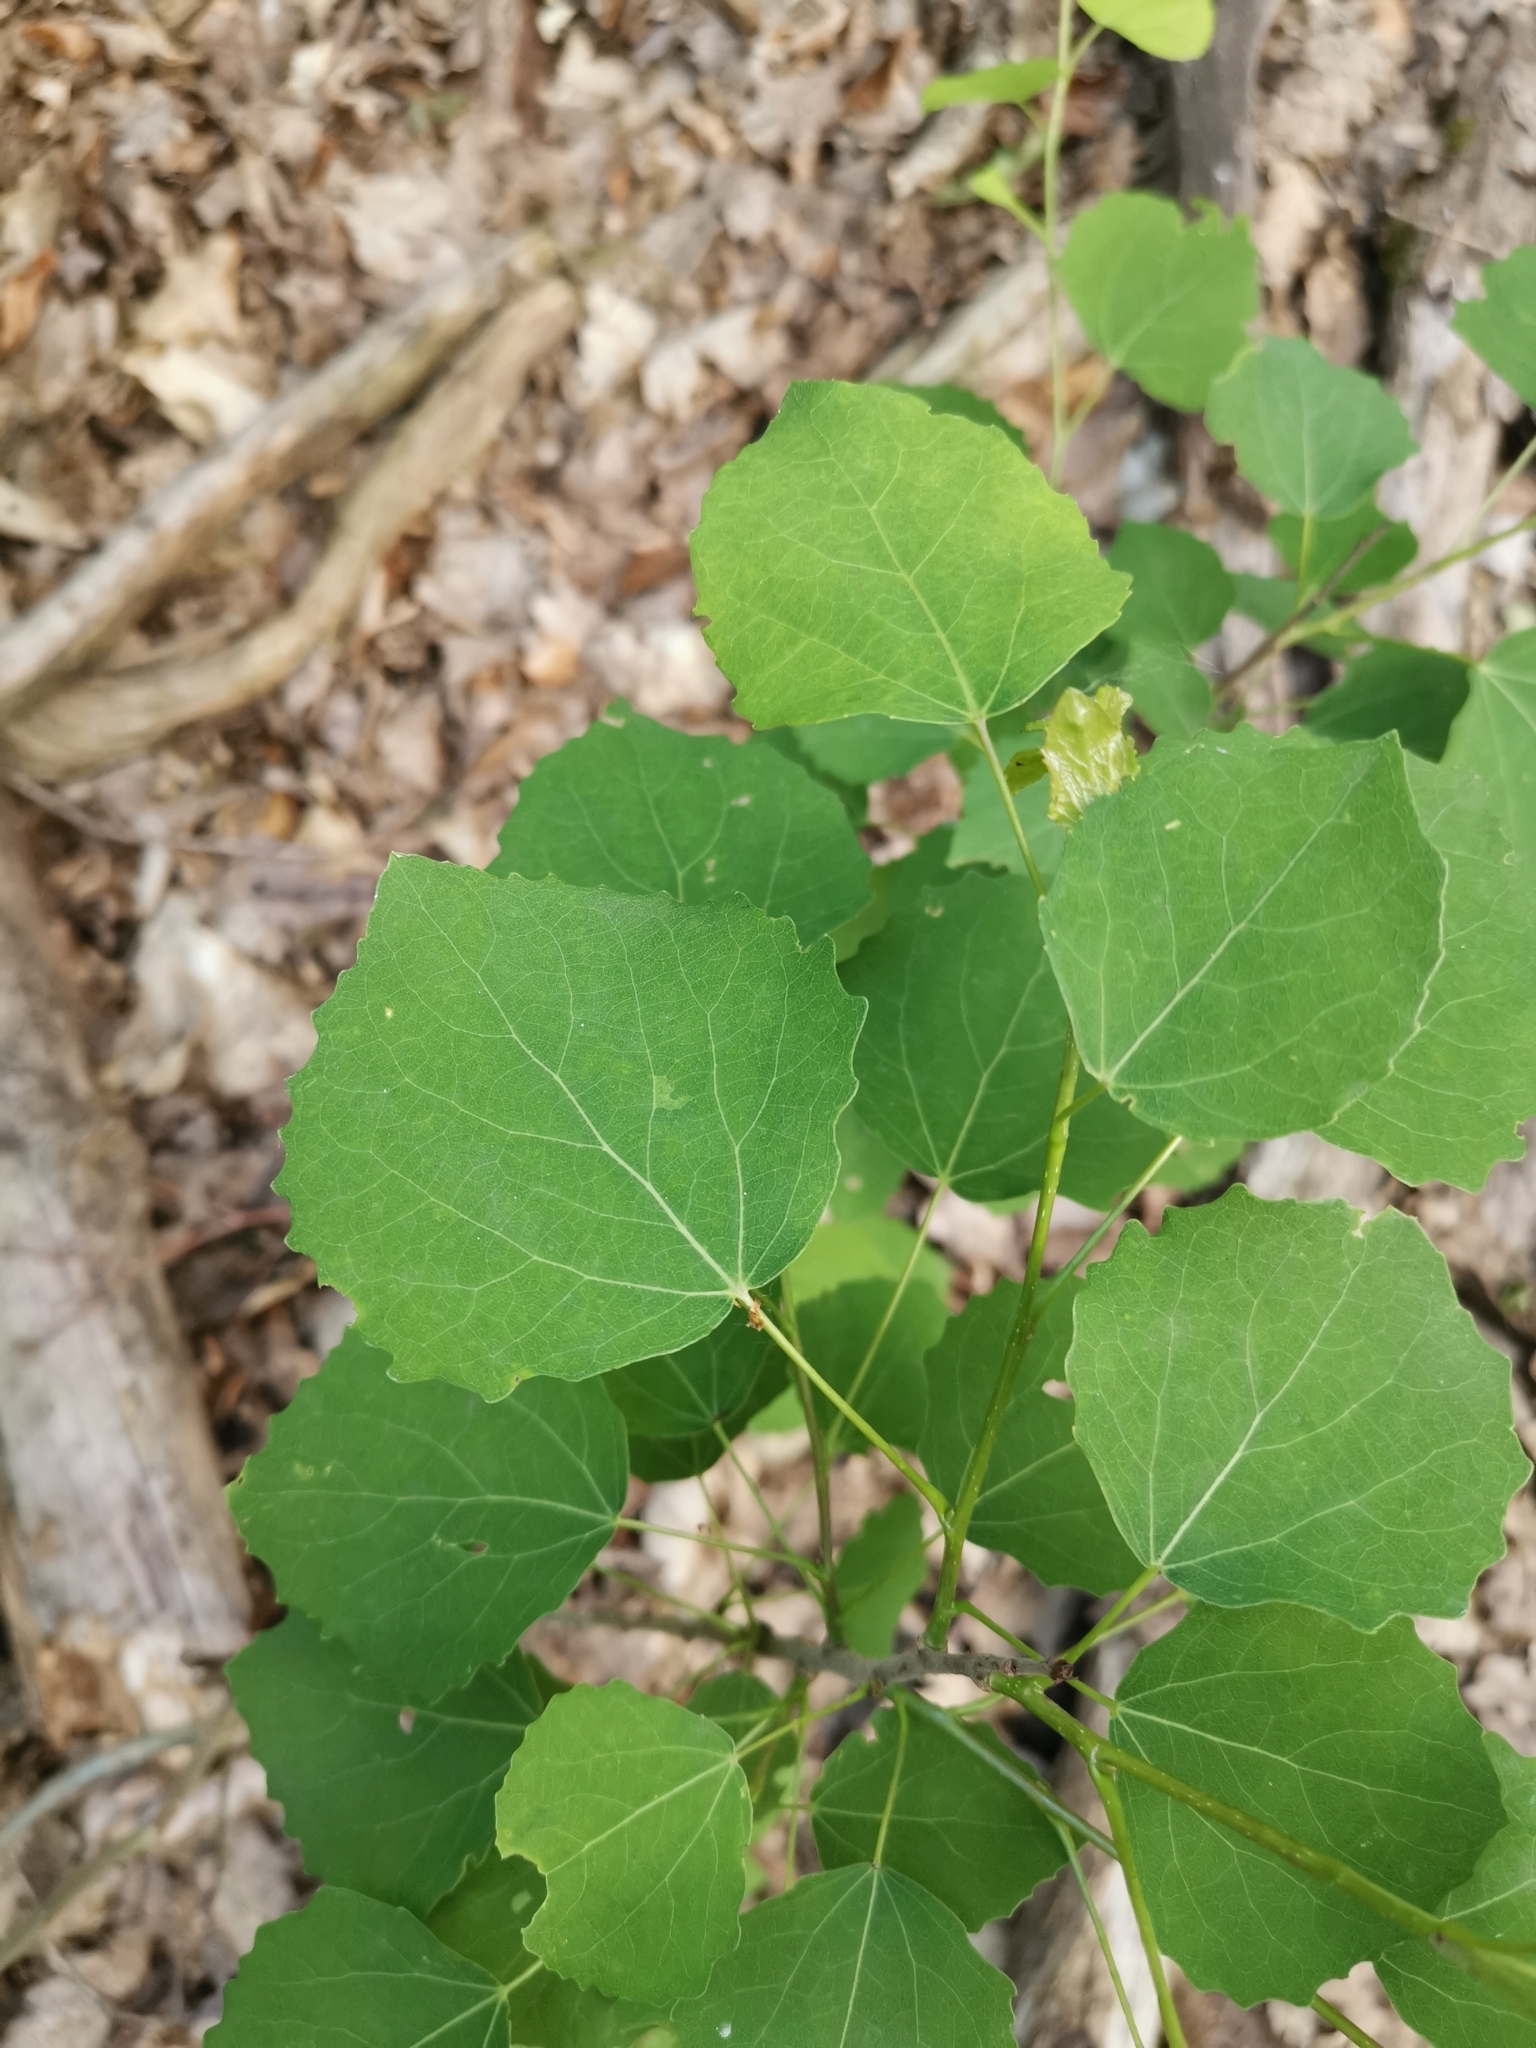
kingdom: Plantae
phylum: Tracheophyta
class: Magnoliopsida
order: Malpighiales
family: Salicaceae
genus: Populus
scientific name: Populus tremula
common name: European aspen
